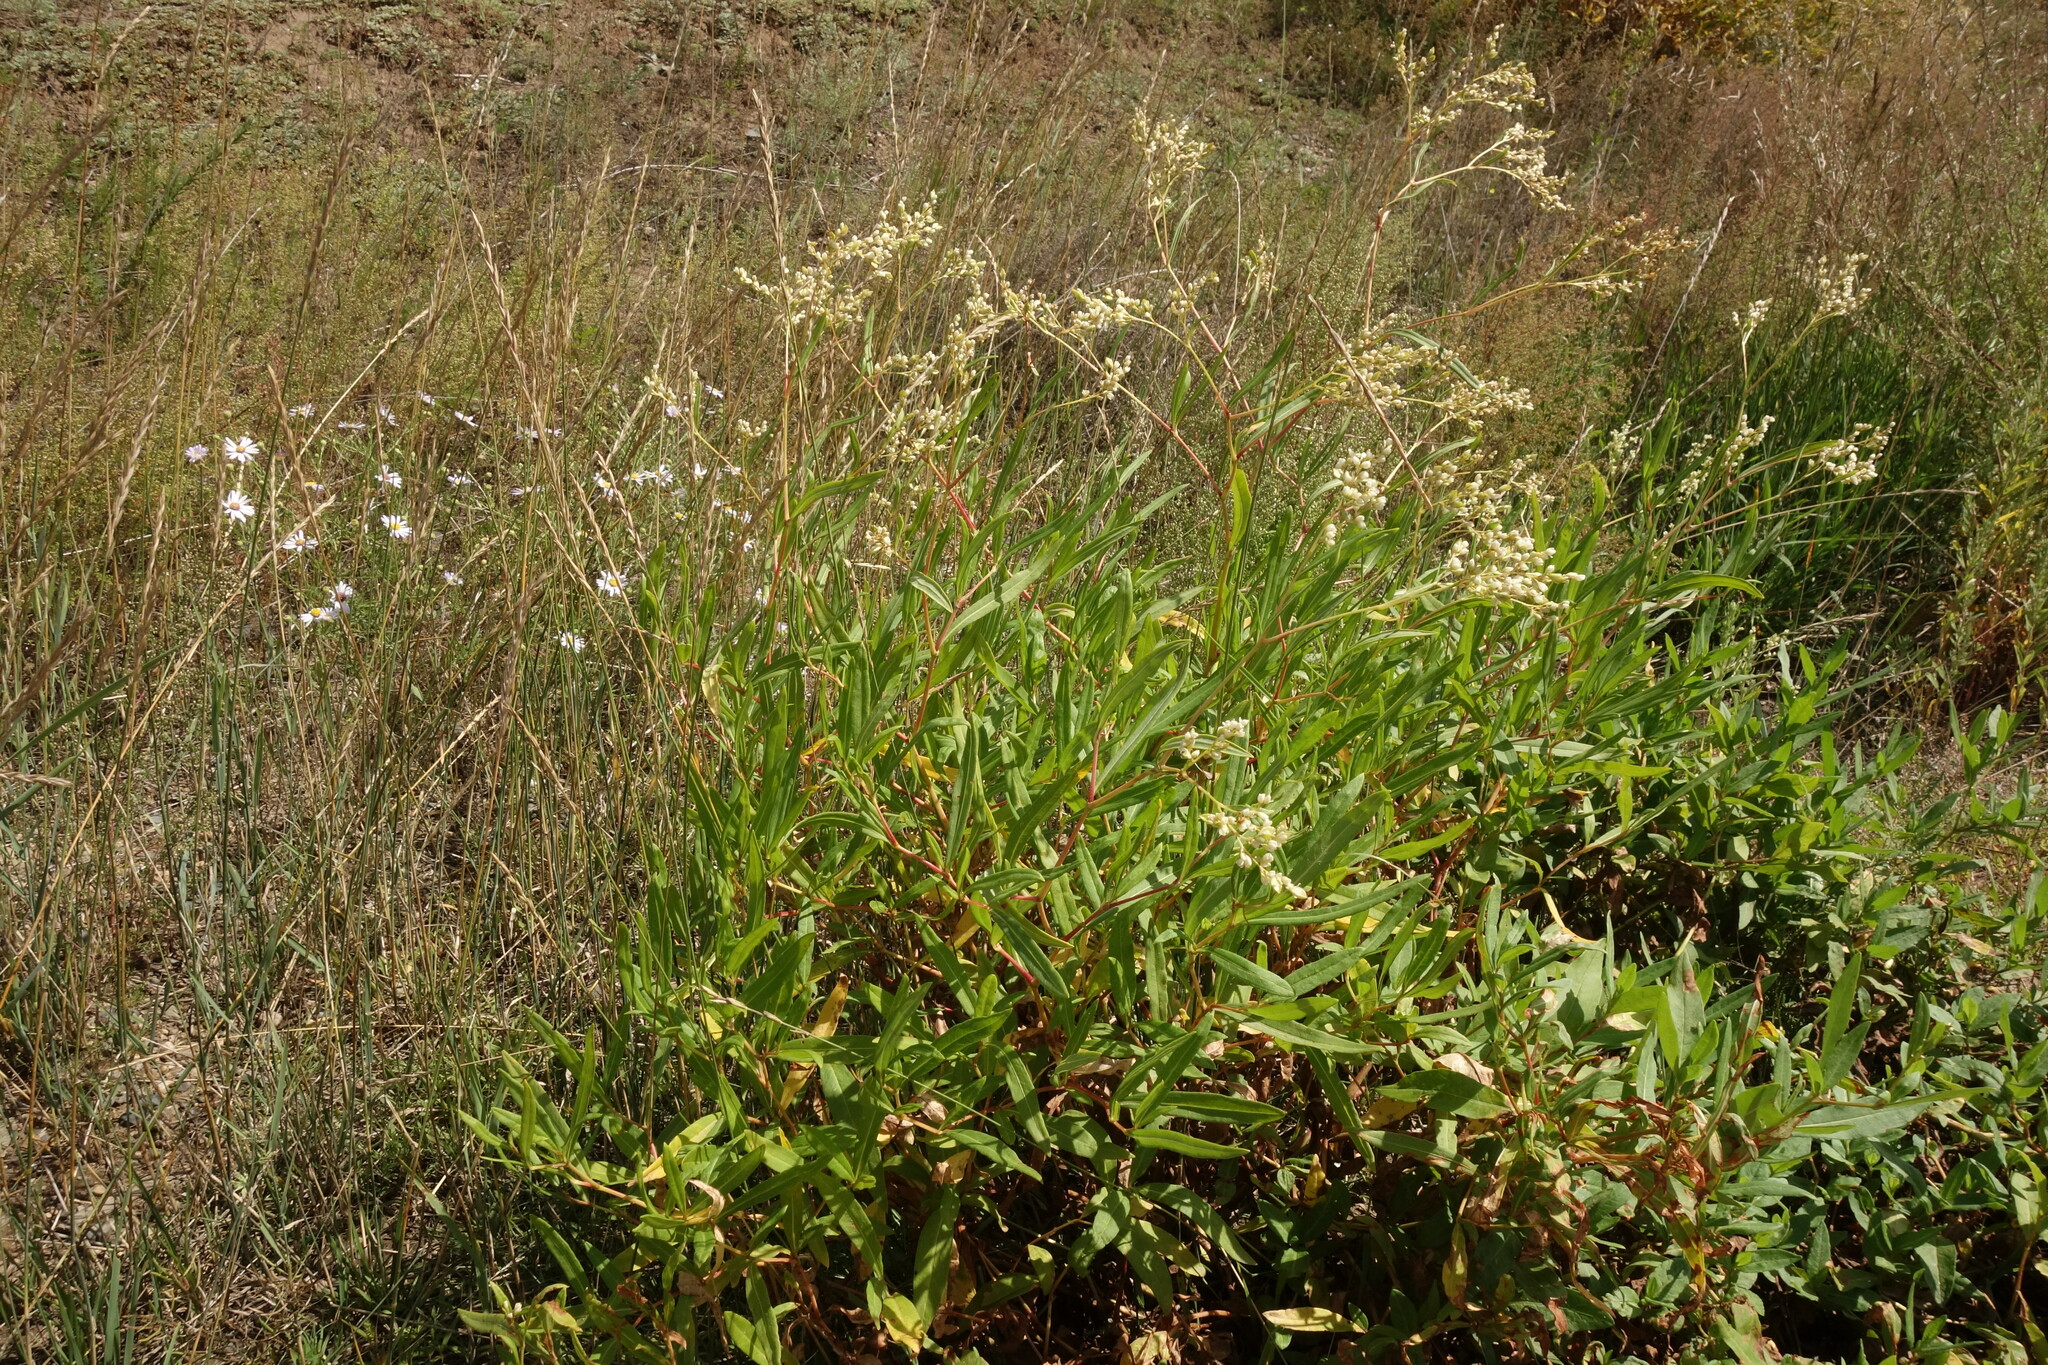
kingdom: Plantae
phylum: Tracheophyta
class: Magnoliopsida
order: Caryophyllales
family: Polygonaceae
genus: Koenigia
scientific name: Koenigia divaricata
